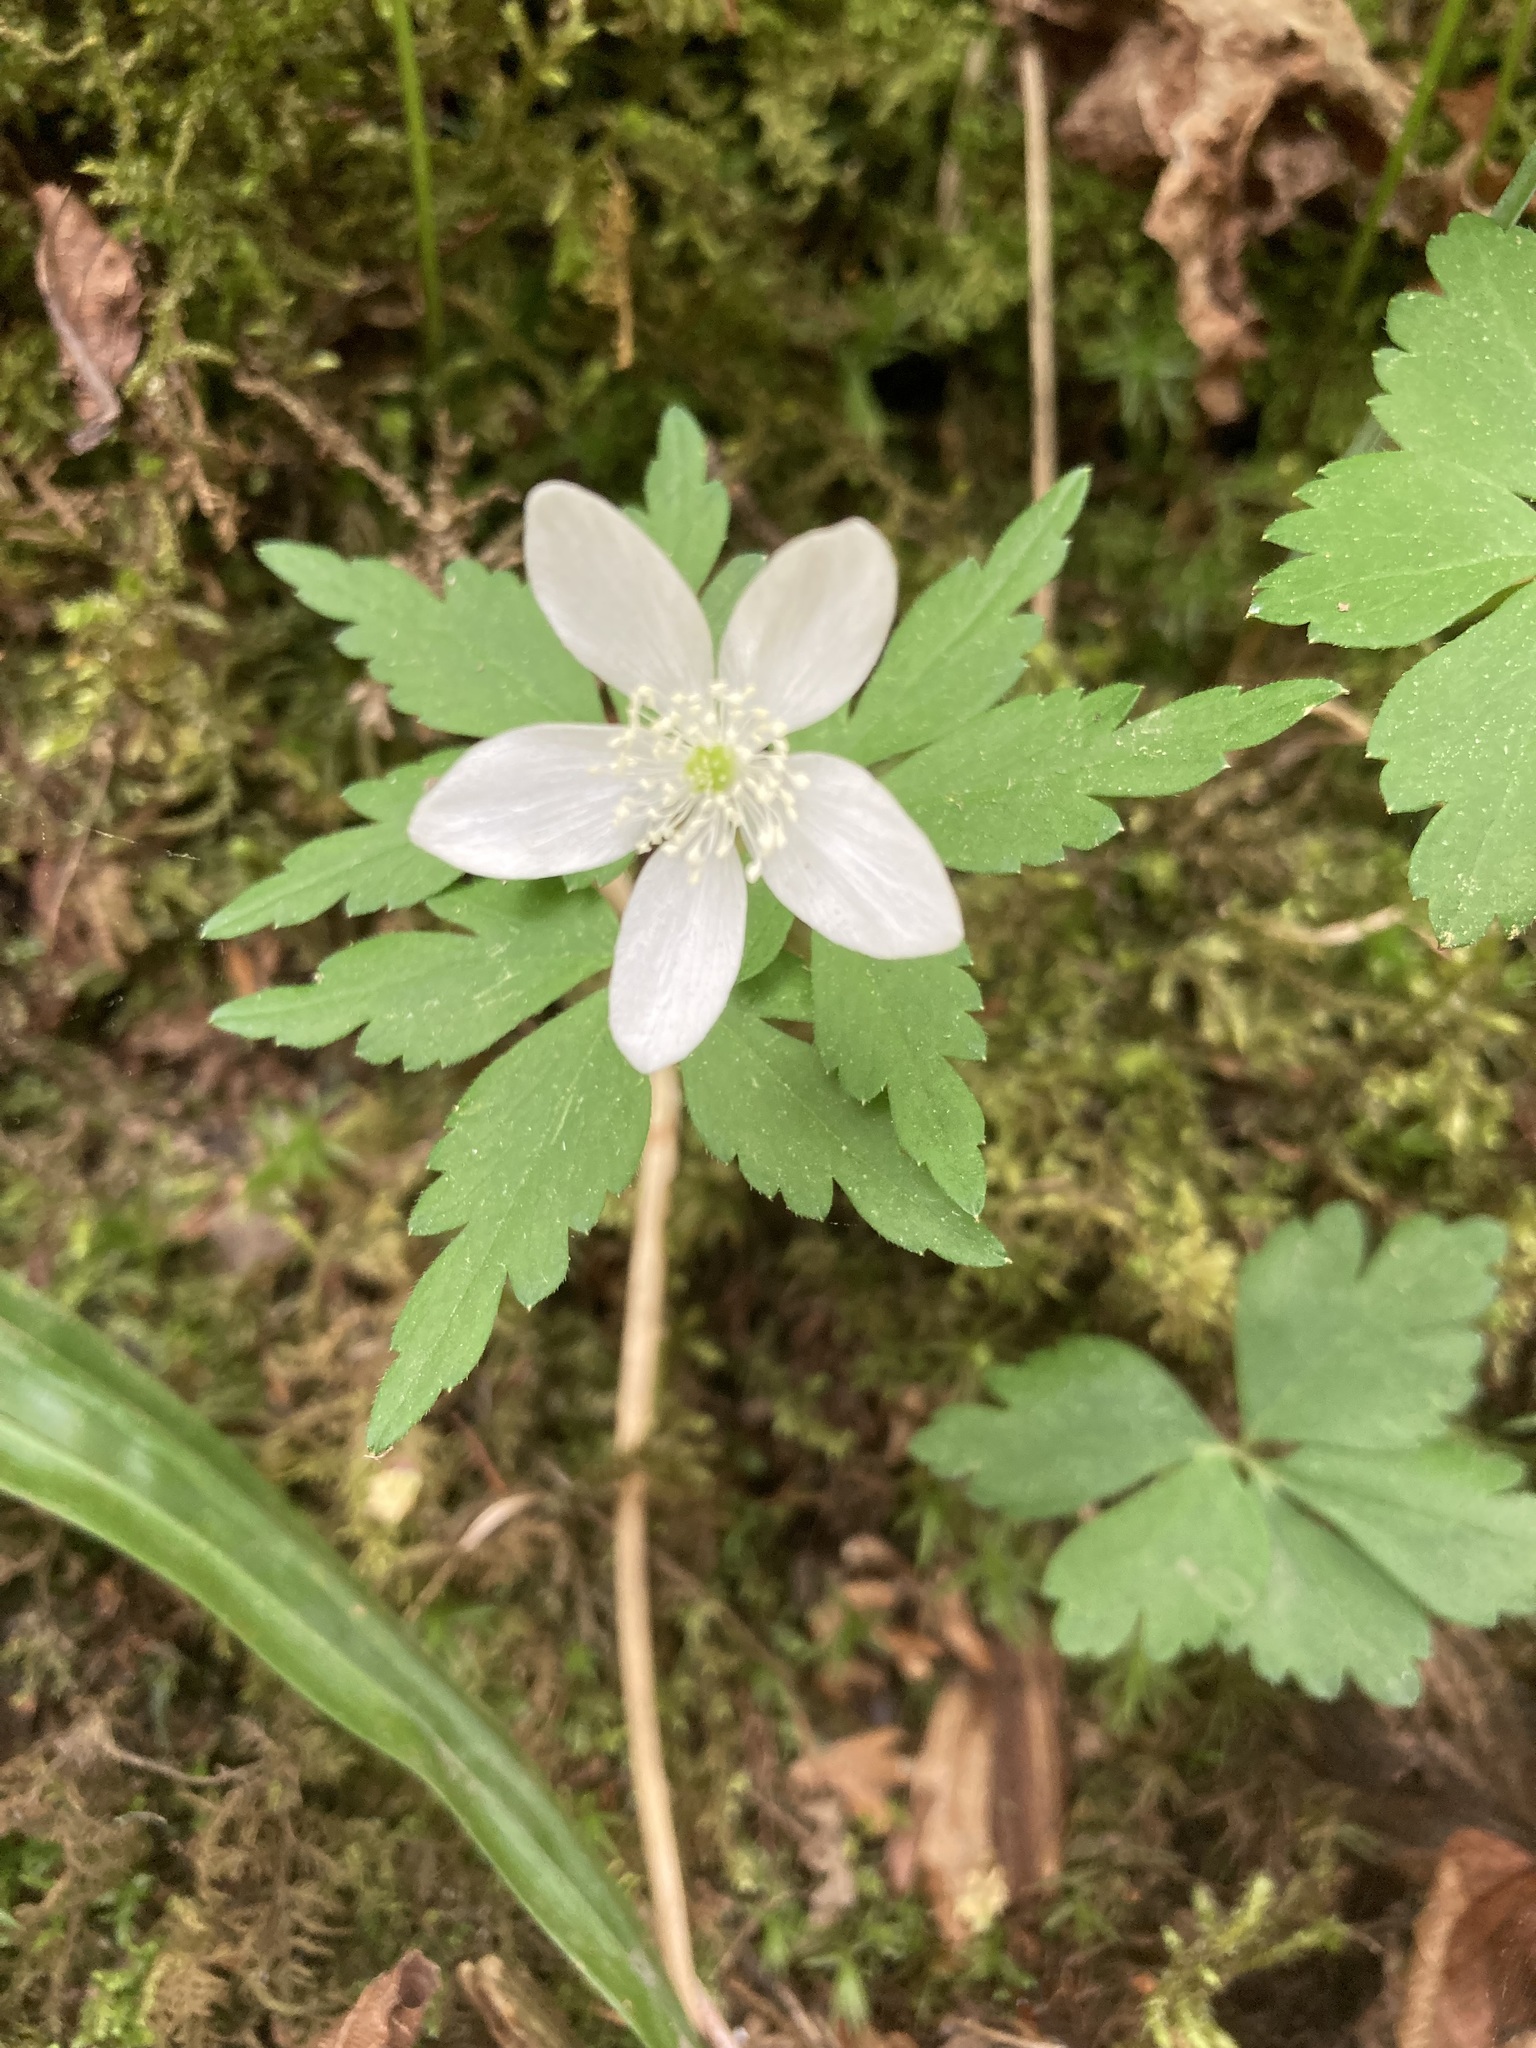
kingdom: Plantae
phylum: Tracheophyta
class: Magnoliopsida
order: Ranunculales
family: Ranunculaceae
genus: Anemone
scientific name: Anemone quinquefolia
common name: Wood anemone
